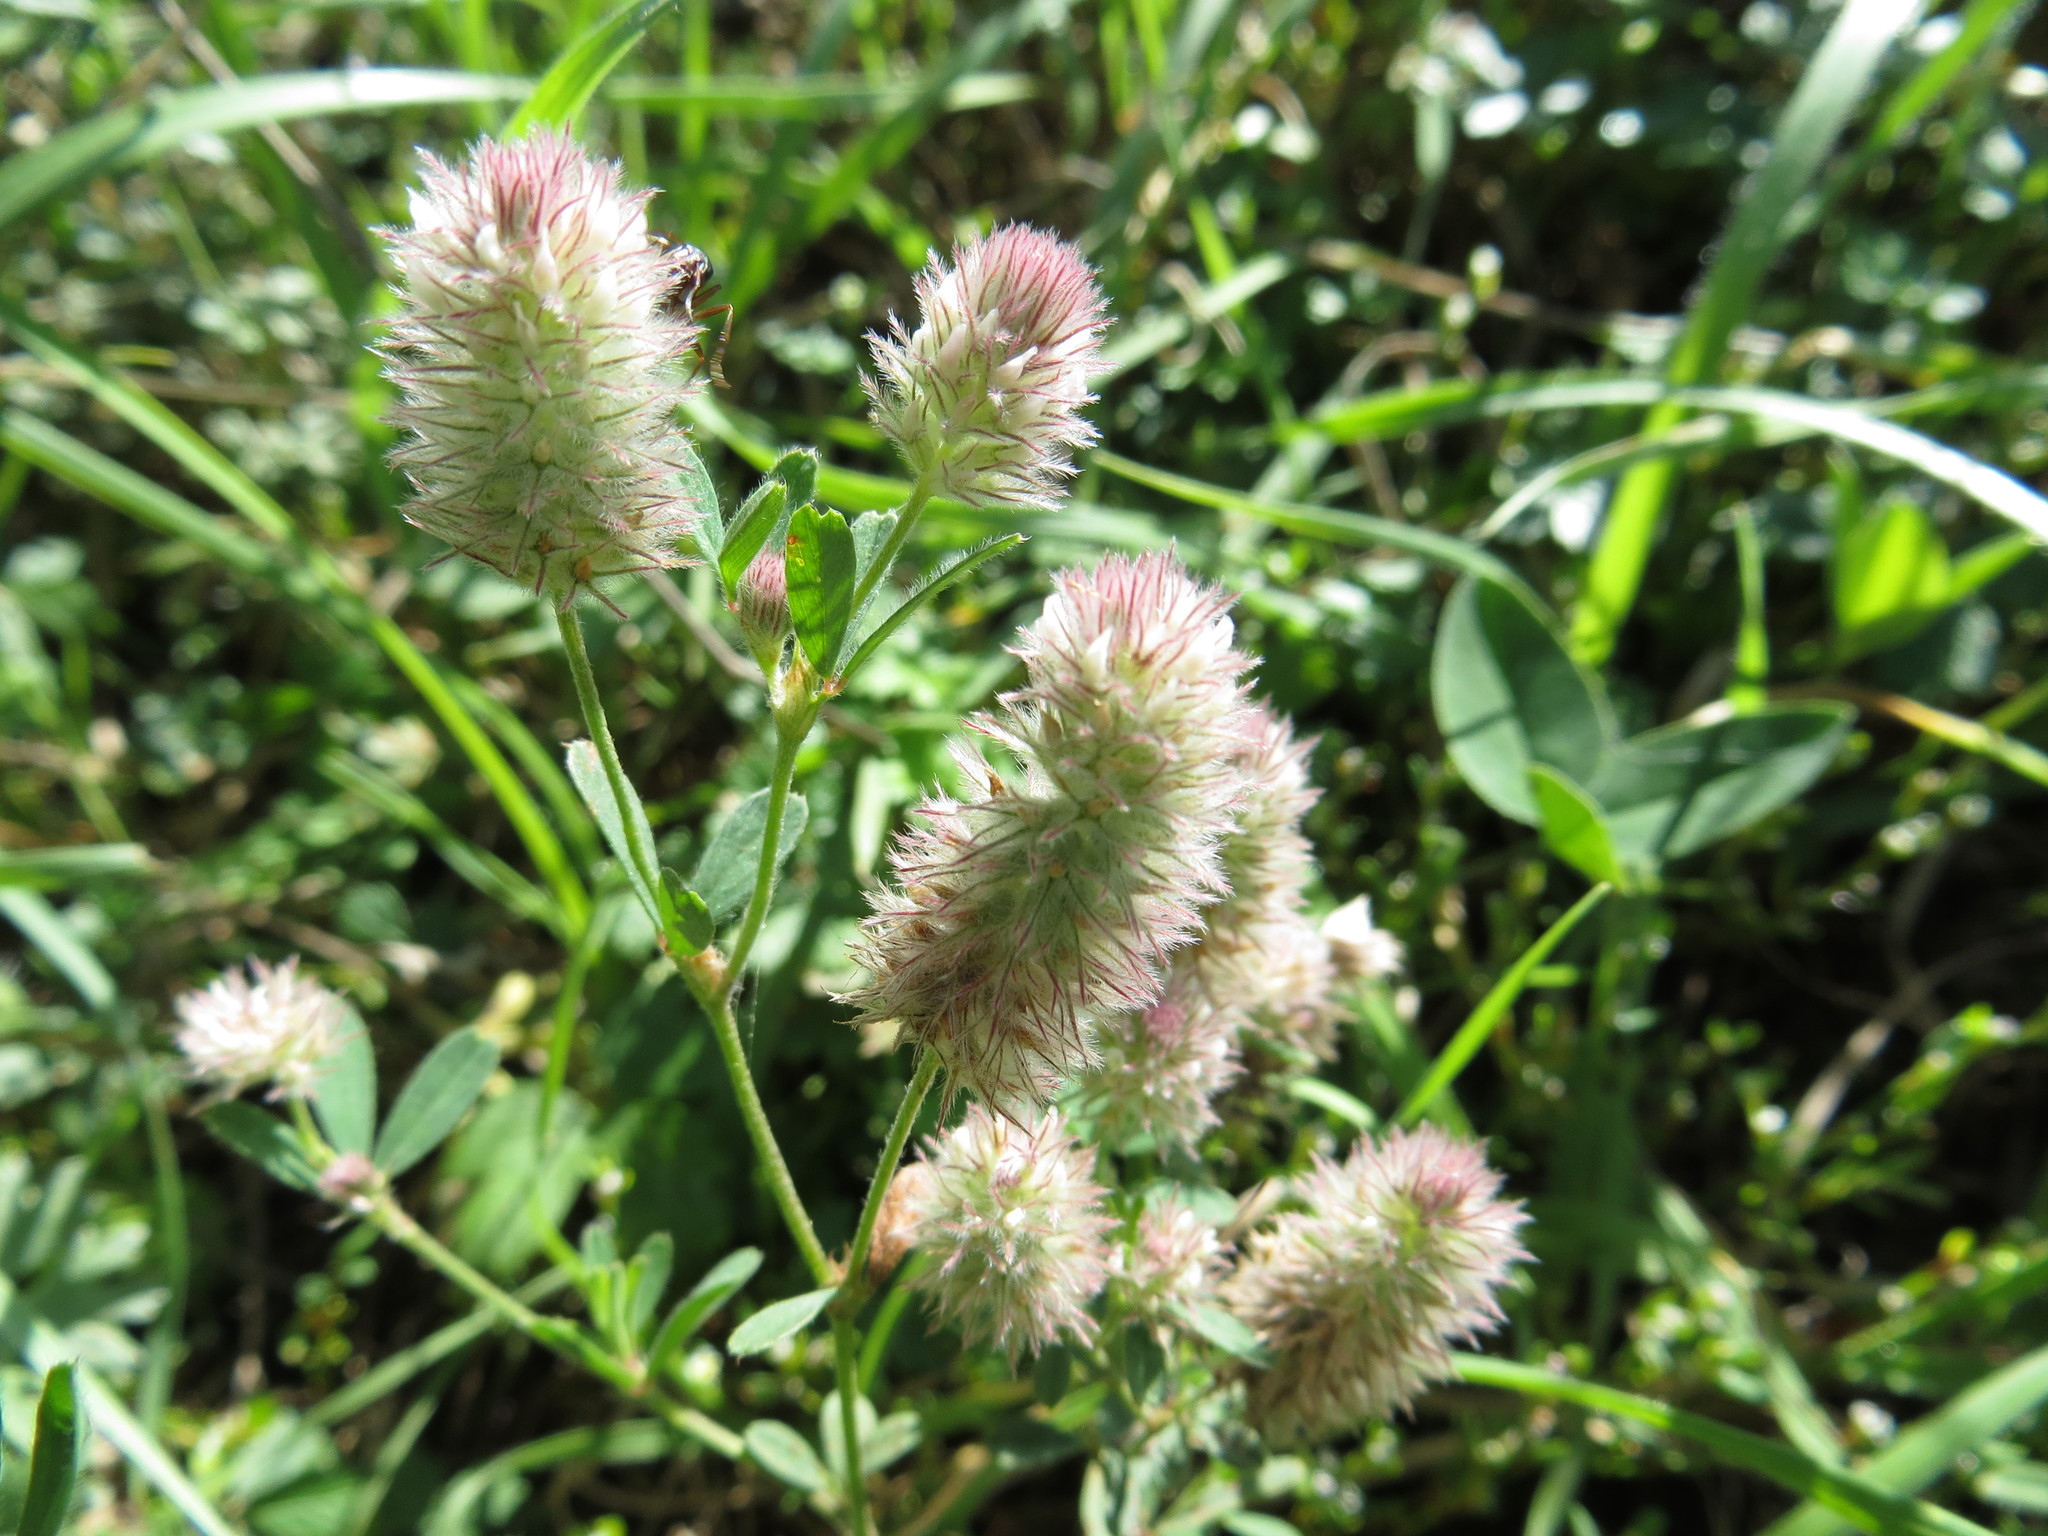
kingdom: Plantae
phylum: Tracheophyta
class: Magnoliopsida
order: Fabales
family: Fabaceae
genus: Trifolium
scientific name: Trifolium arvense
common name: Hare's-foot clover
